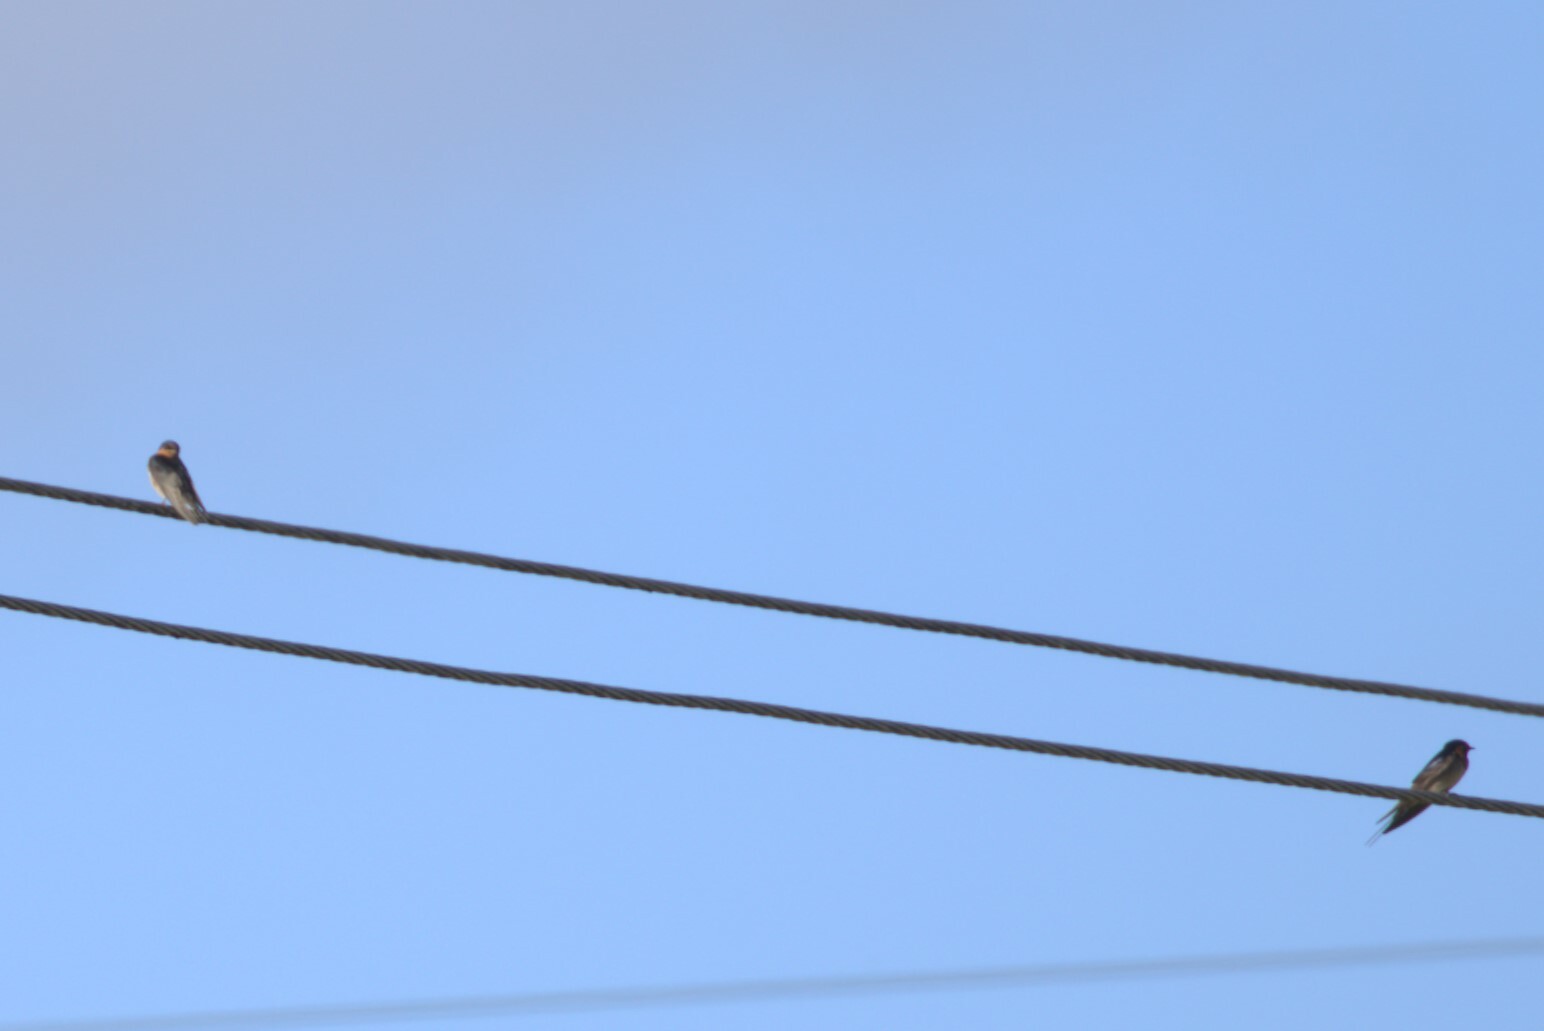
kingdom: Animalia
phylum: Chordata
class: Aves
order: Passeriformes
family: Hirundinidae
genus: Hirundo
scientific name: Hirundo neoxena
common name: Welcome swallow
